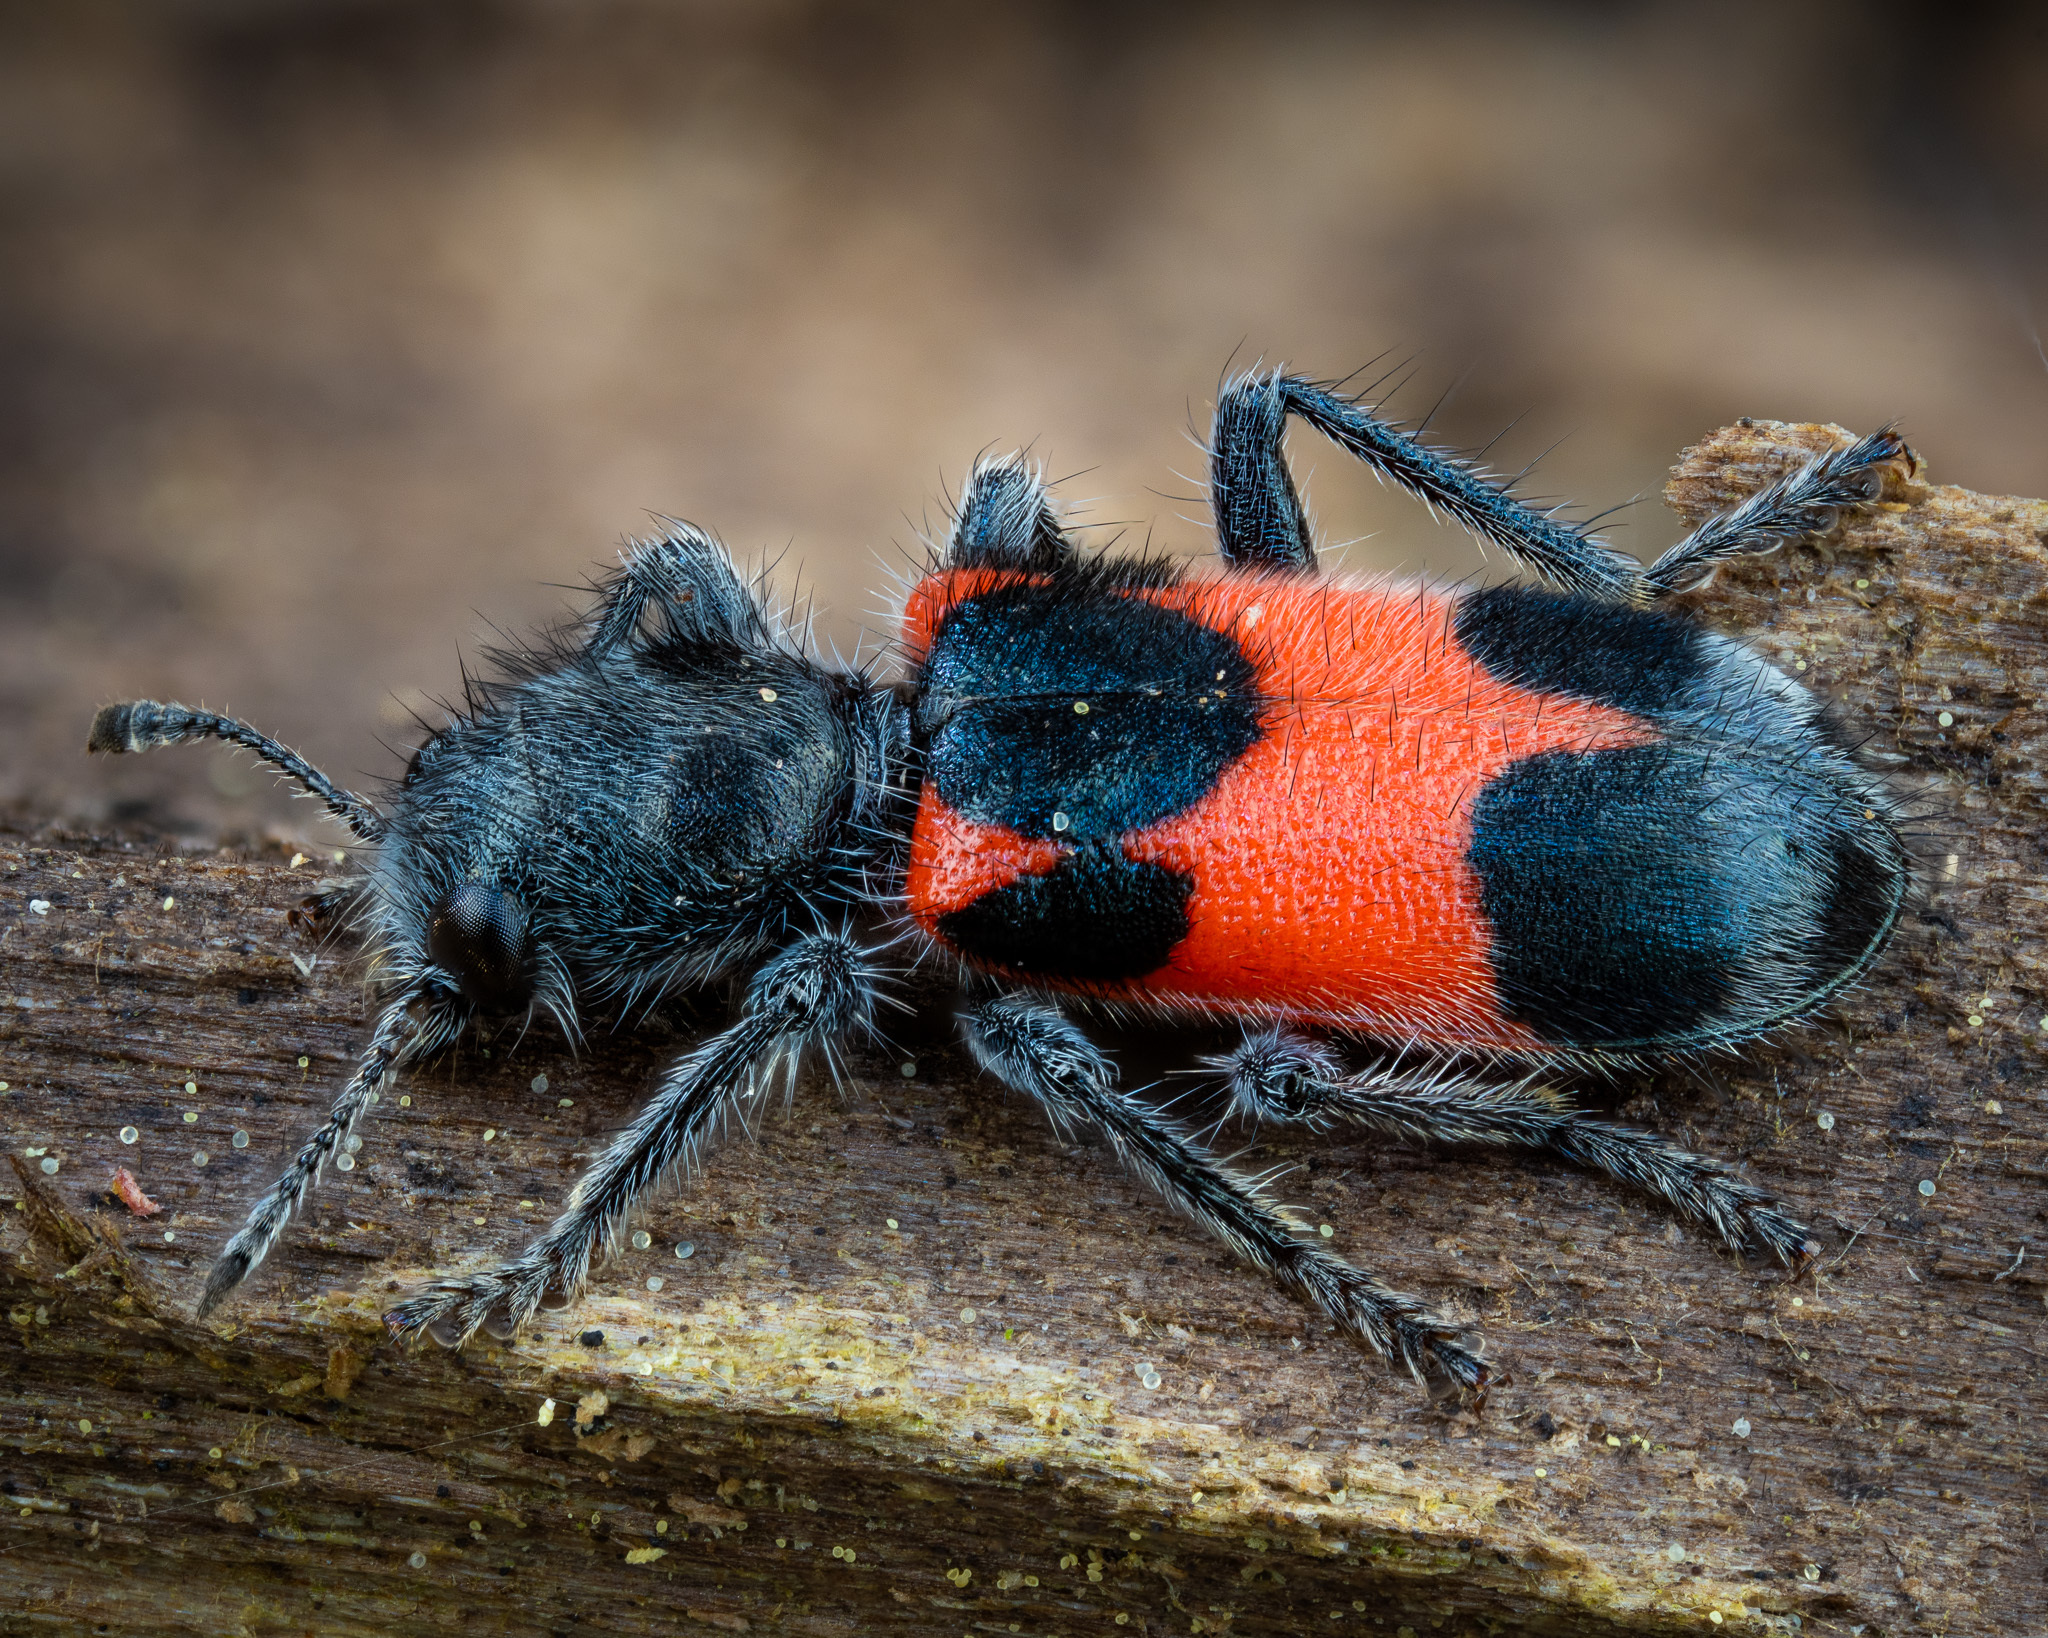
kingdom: Animalia
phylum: Arthropoda
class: Insecta
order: Coleoptera
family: Cleridae
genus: Enoclerus
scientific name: Enoclerus eximius
